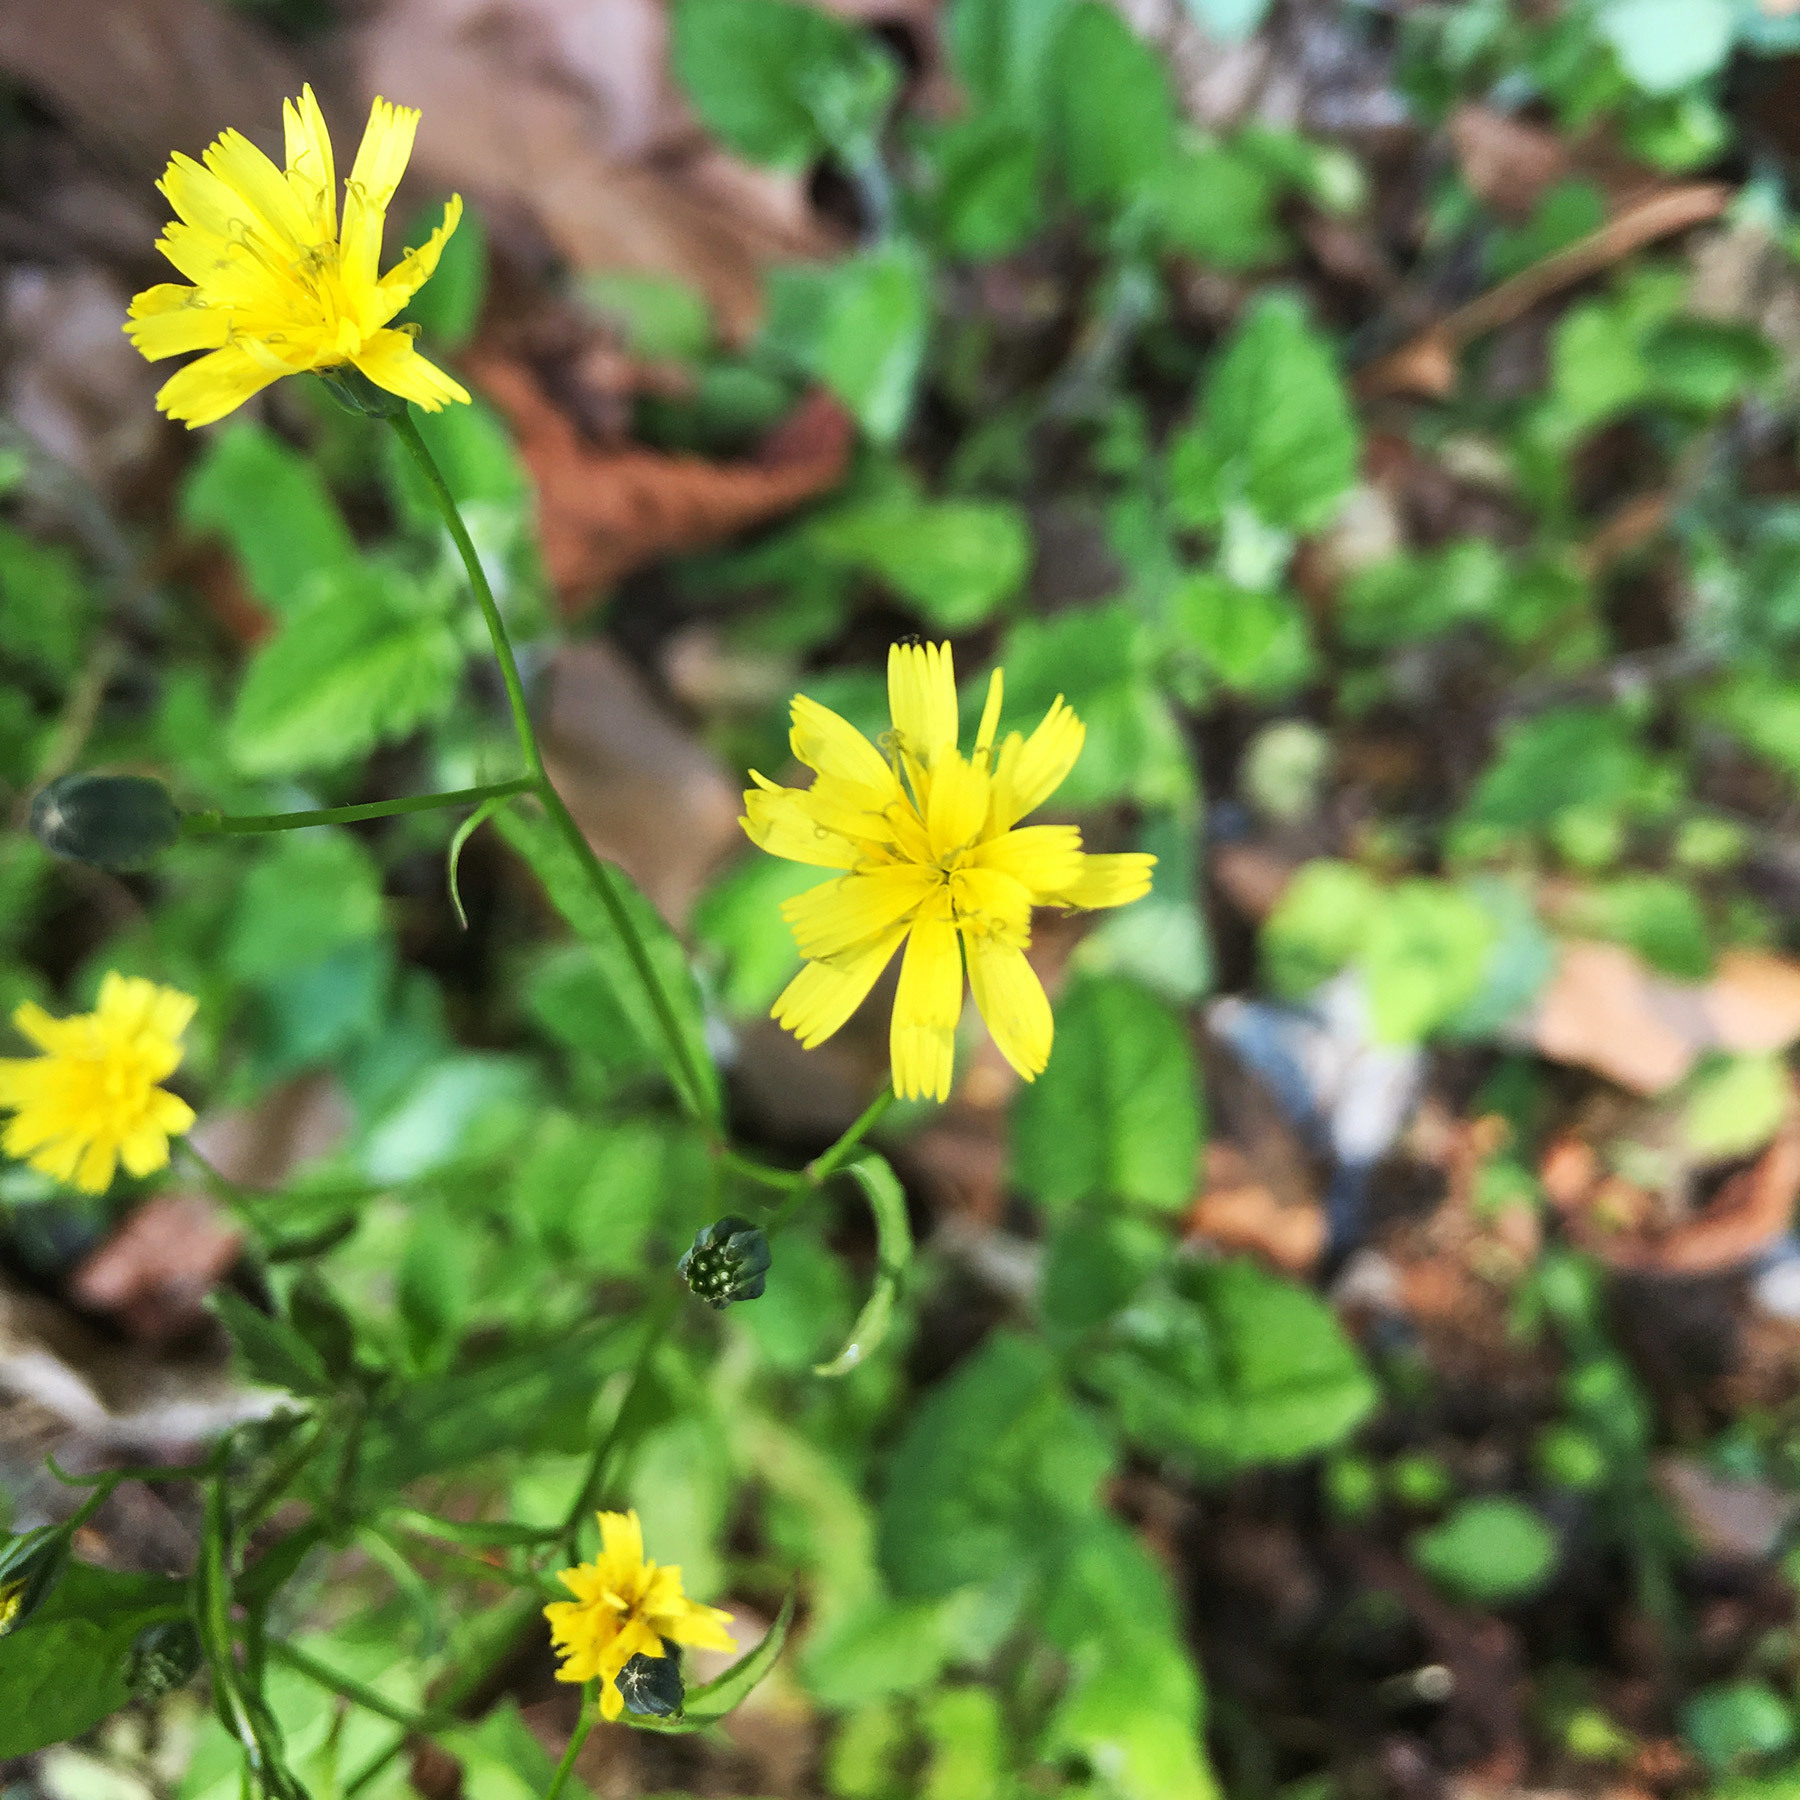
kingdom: Plantae
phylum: Tracheophyta
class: Magnoliopsida
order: Asterales
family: Asteraceae
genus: Lapsana
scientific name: Lapsana communis
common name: Nipplewort
